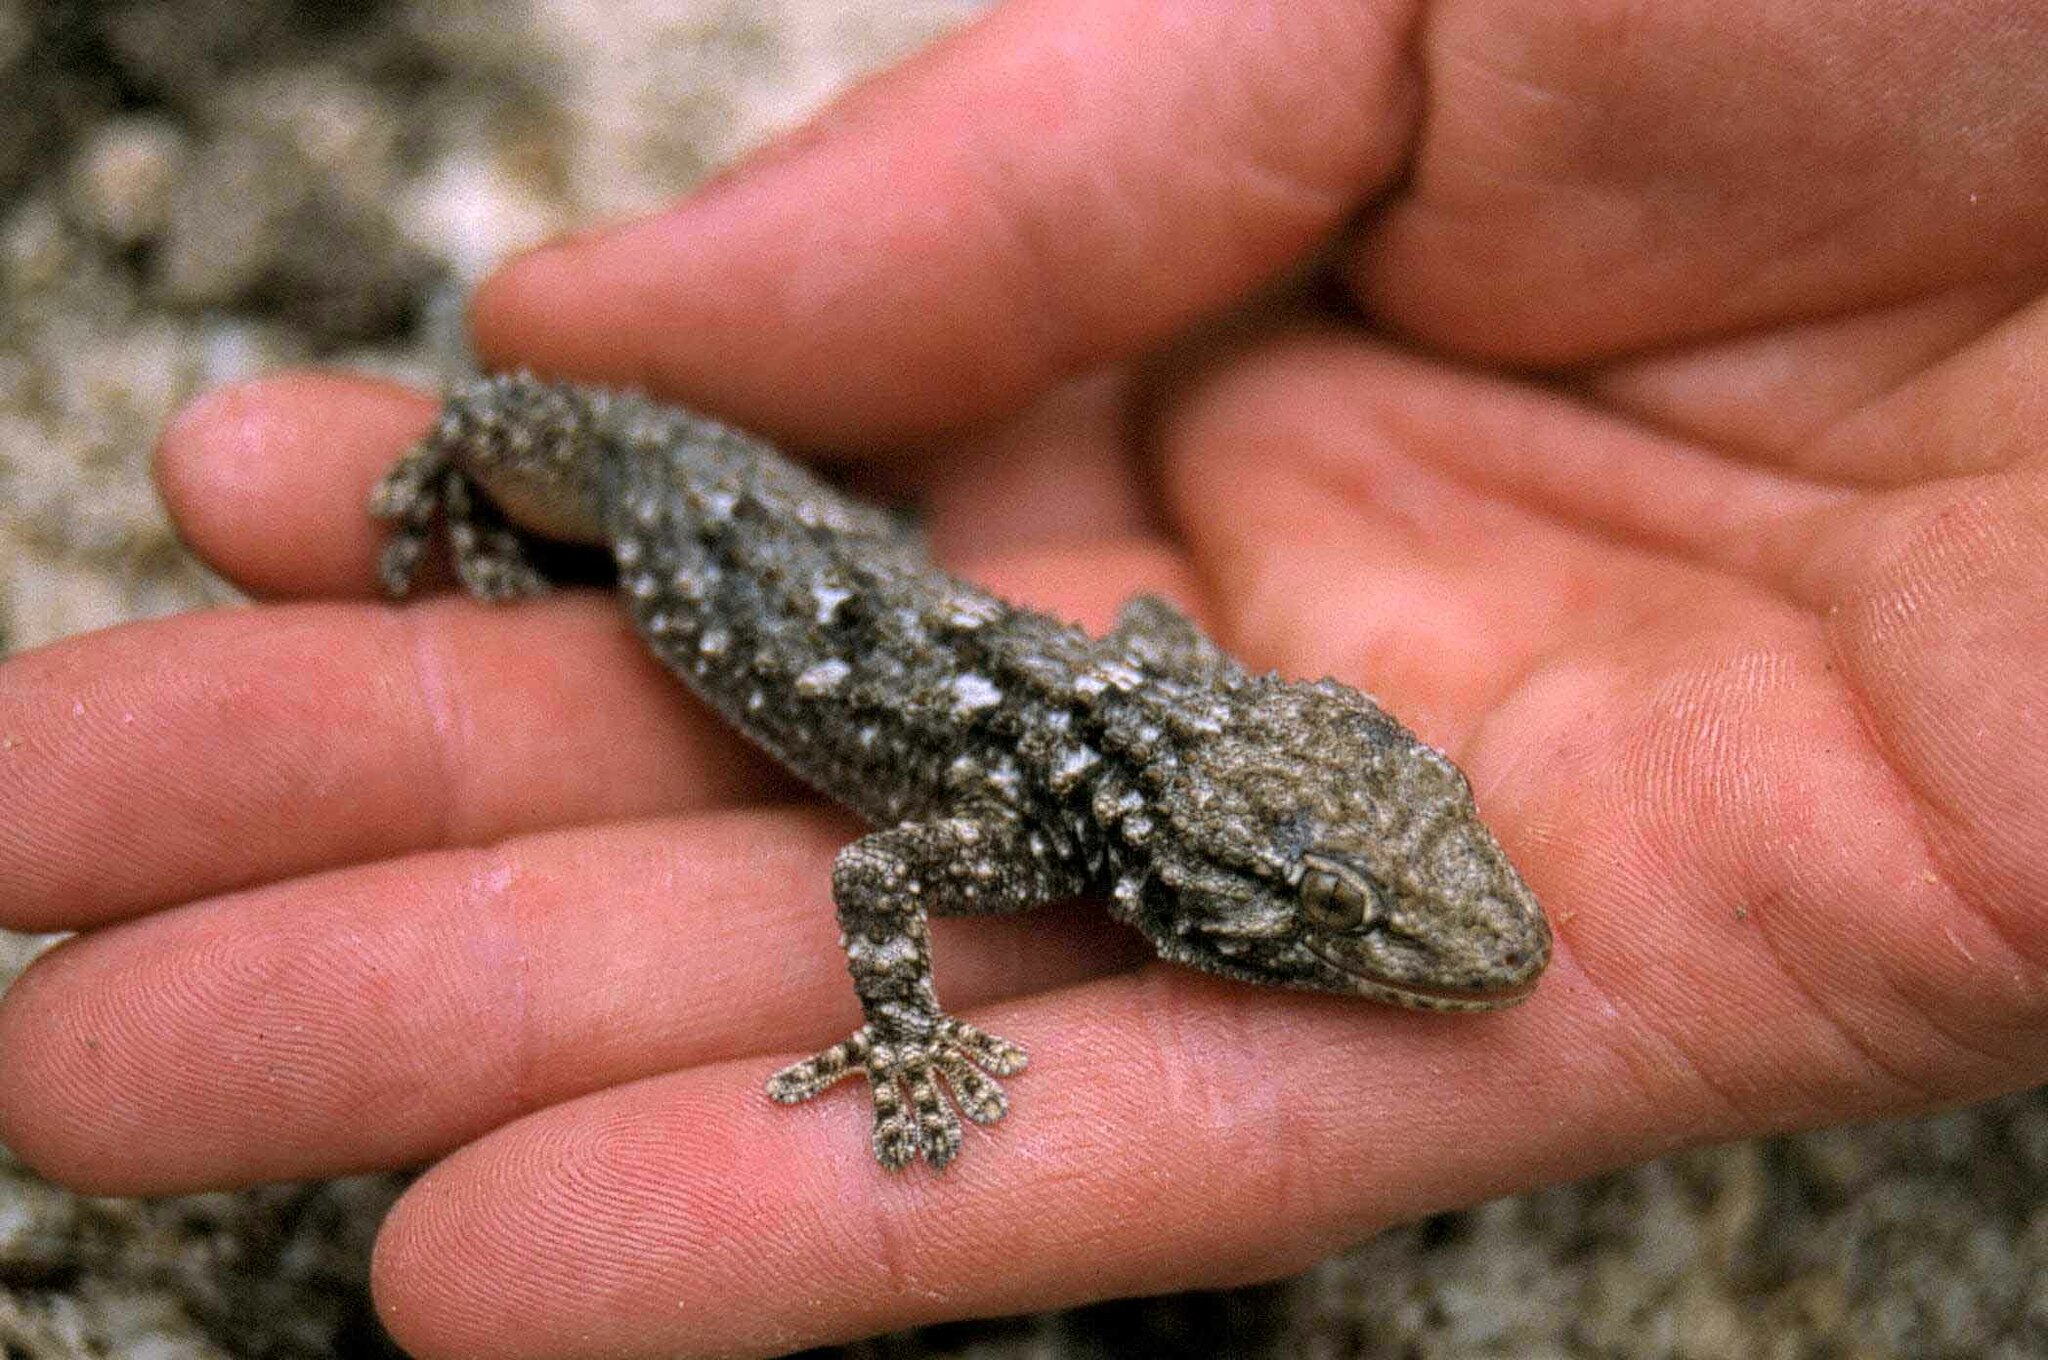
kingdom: Animalia
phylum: Chordata
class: Squamata
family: Phyllodactylidae
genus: Tarentola
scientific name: Tarentola mauritanica
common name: Moorish gecko
